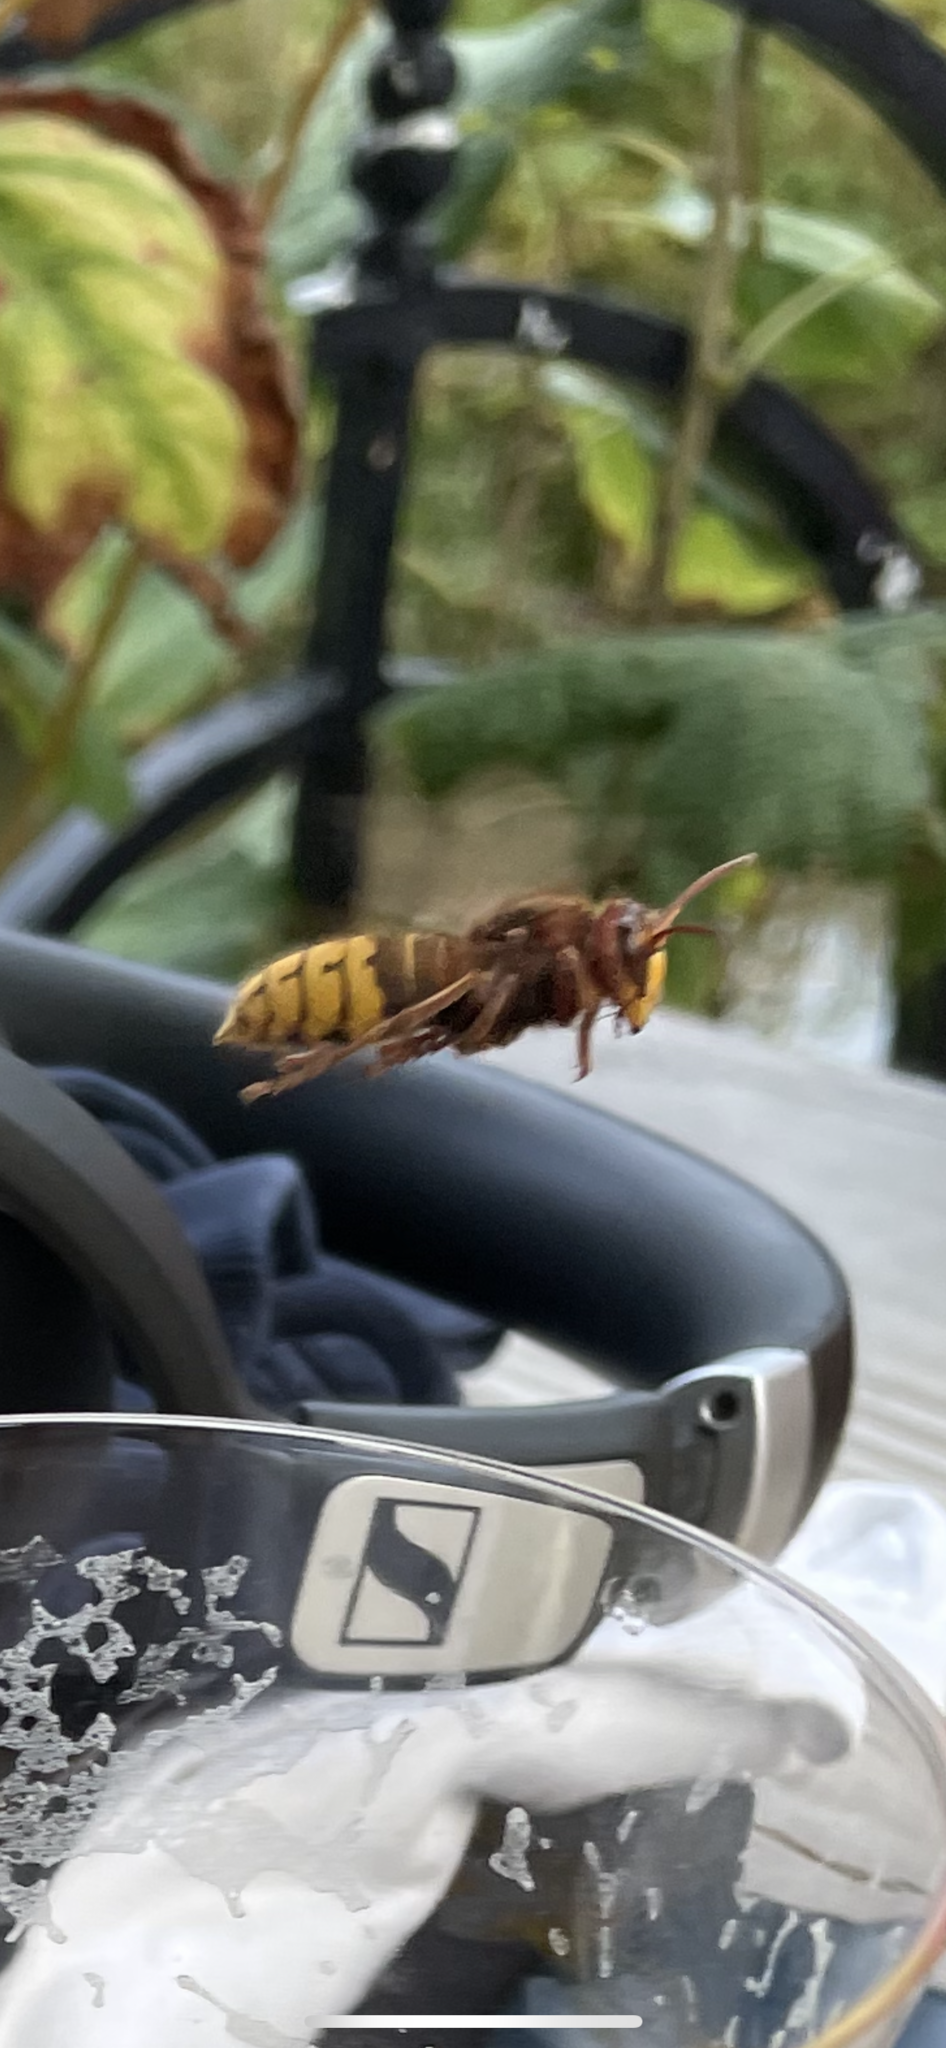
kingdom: Animalia
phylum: Arthropoda
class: Insecta
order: Hymenoptera
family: Vespidae
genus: Vespa
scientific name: Vespa crabro
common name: Hornet
